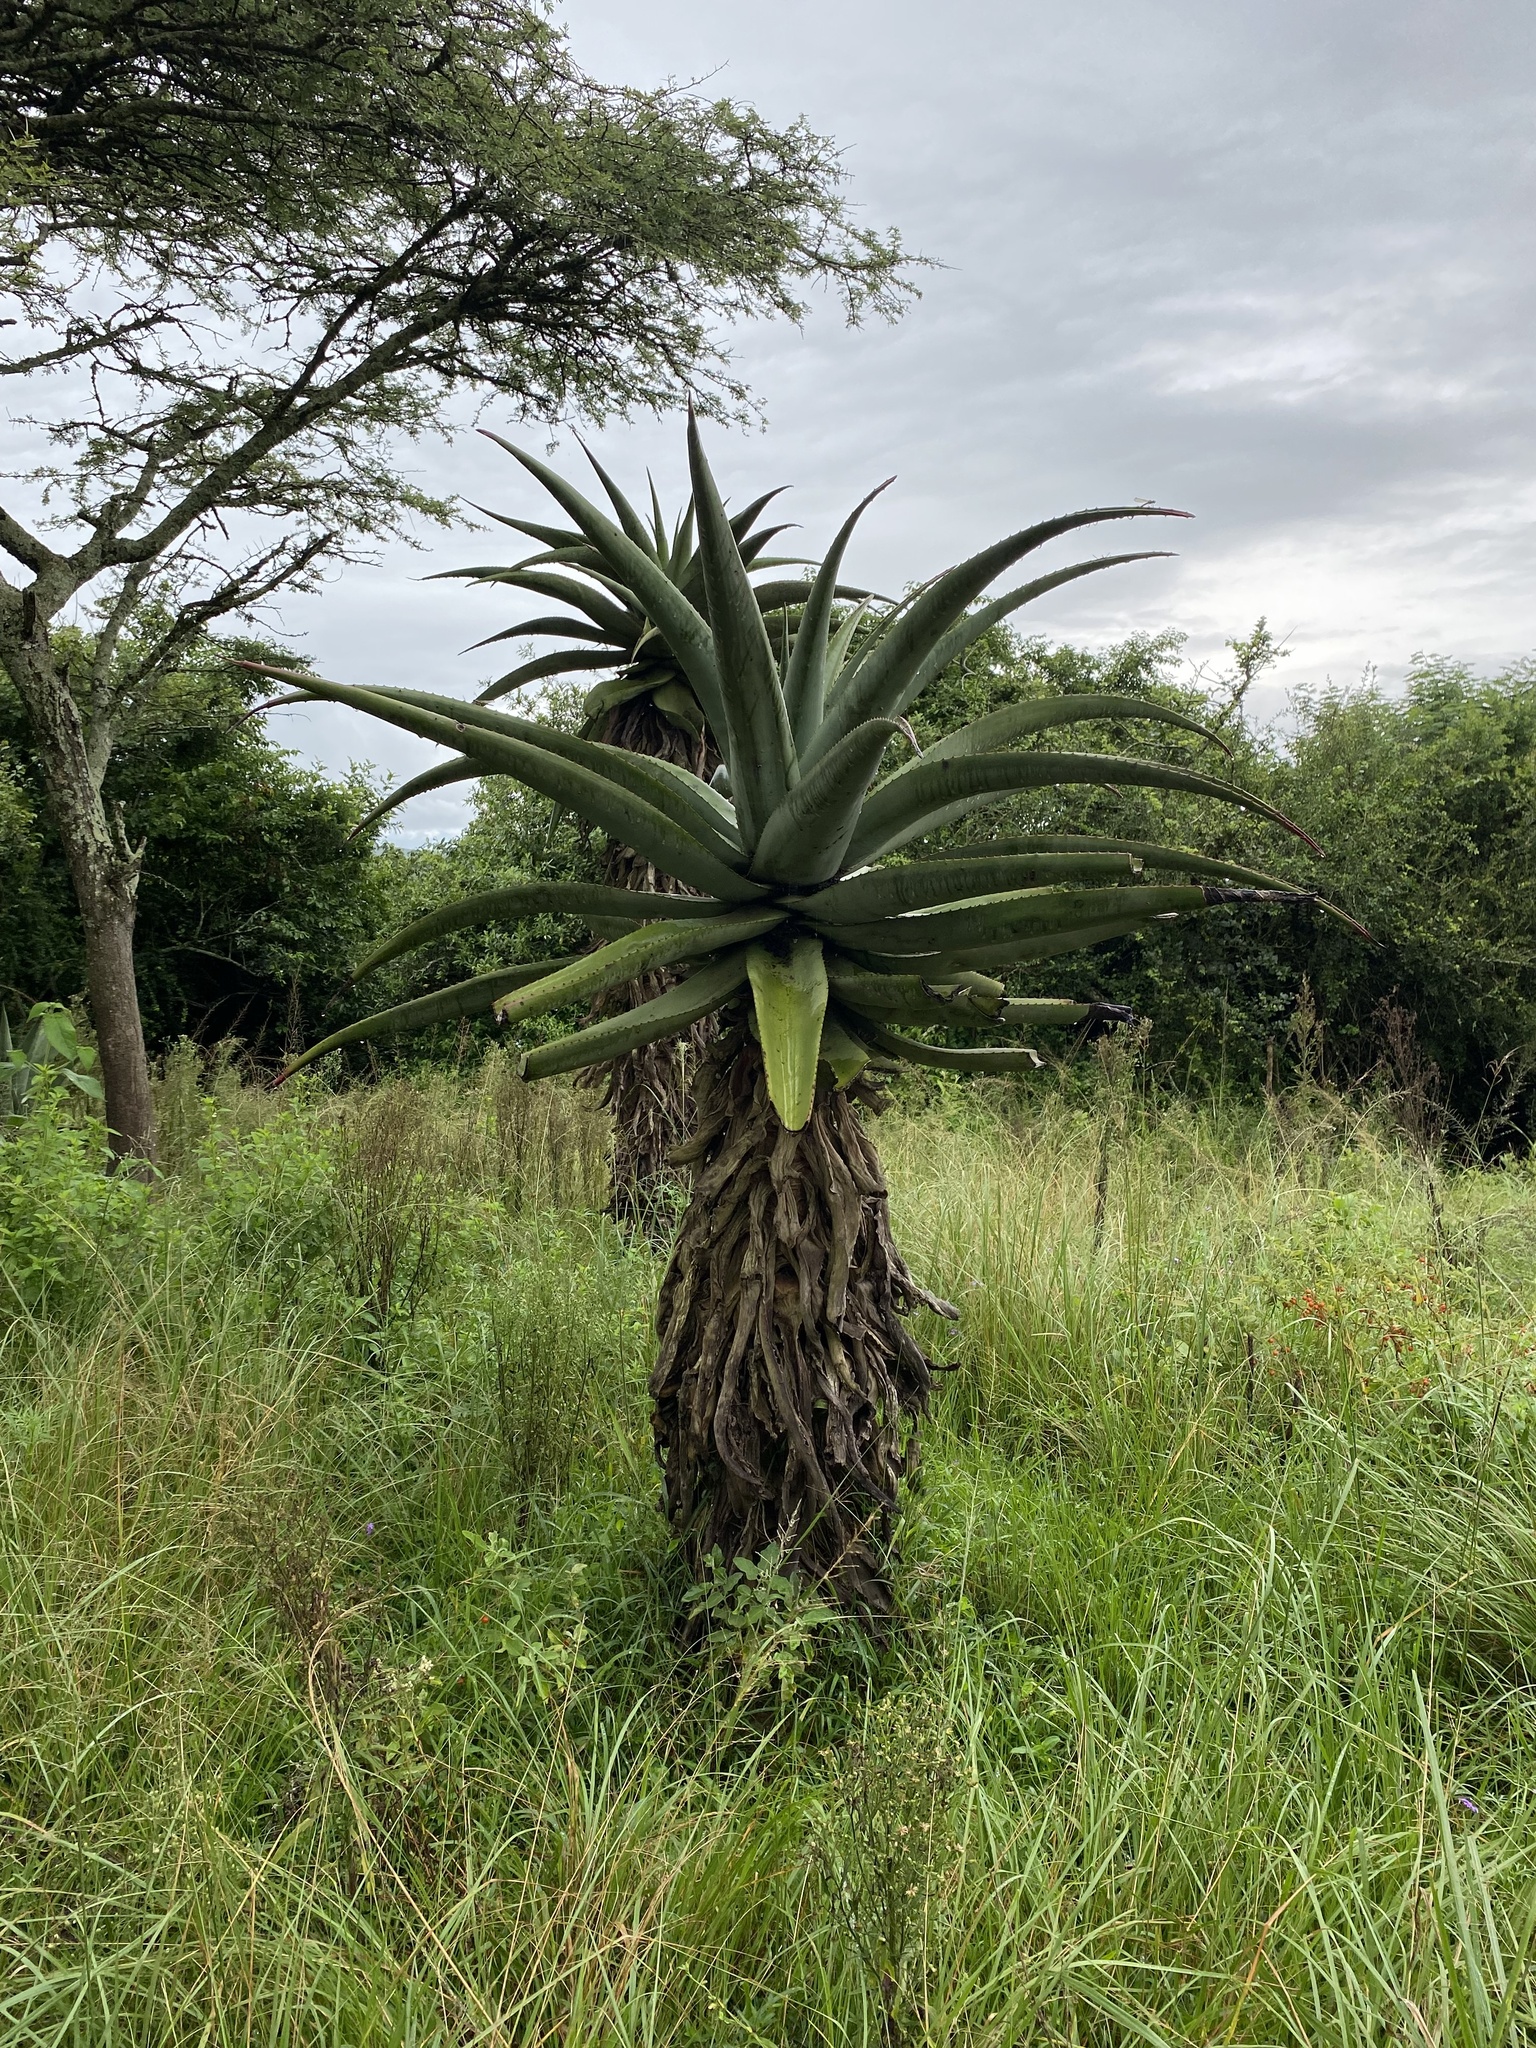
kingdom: Plantae
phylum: Tracheophyta
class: Liliopsida
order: Asparagales
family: Asphodelaceae
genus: Aloe
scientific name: Aloe candelabrum
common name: Candelabra aloe
